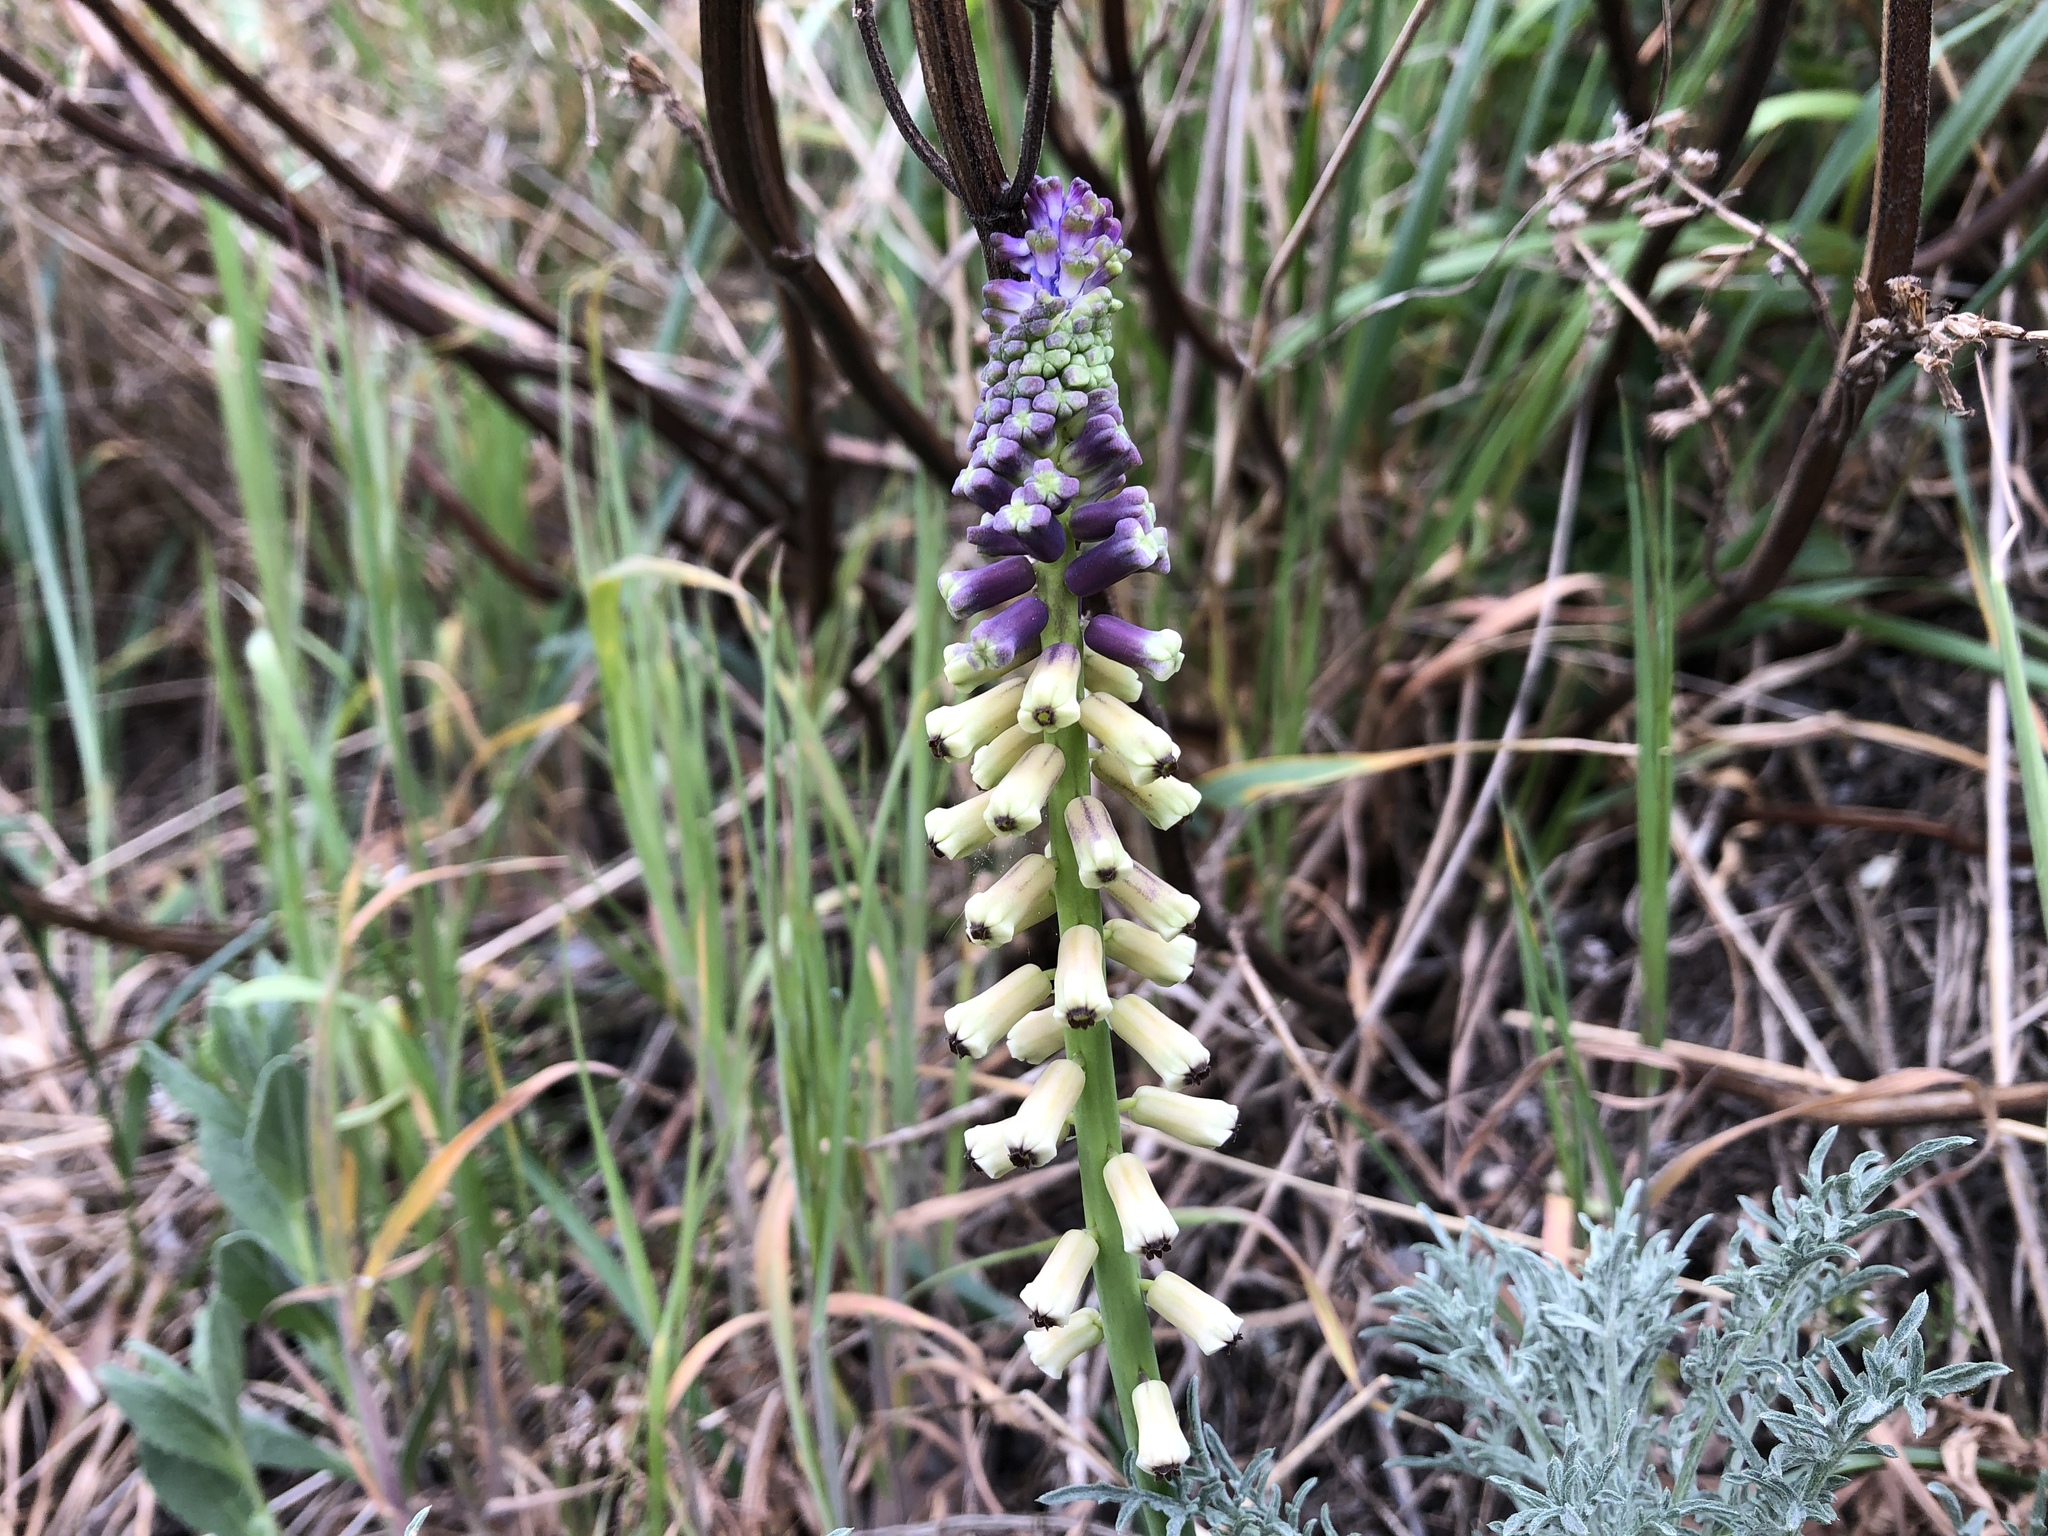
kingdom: Plantae
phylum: Tracheophyta
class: Liliopsida
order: Asparagales
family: Asparagaceae
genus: Muscari
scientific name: Muscari tenuiflorum
